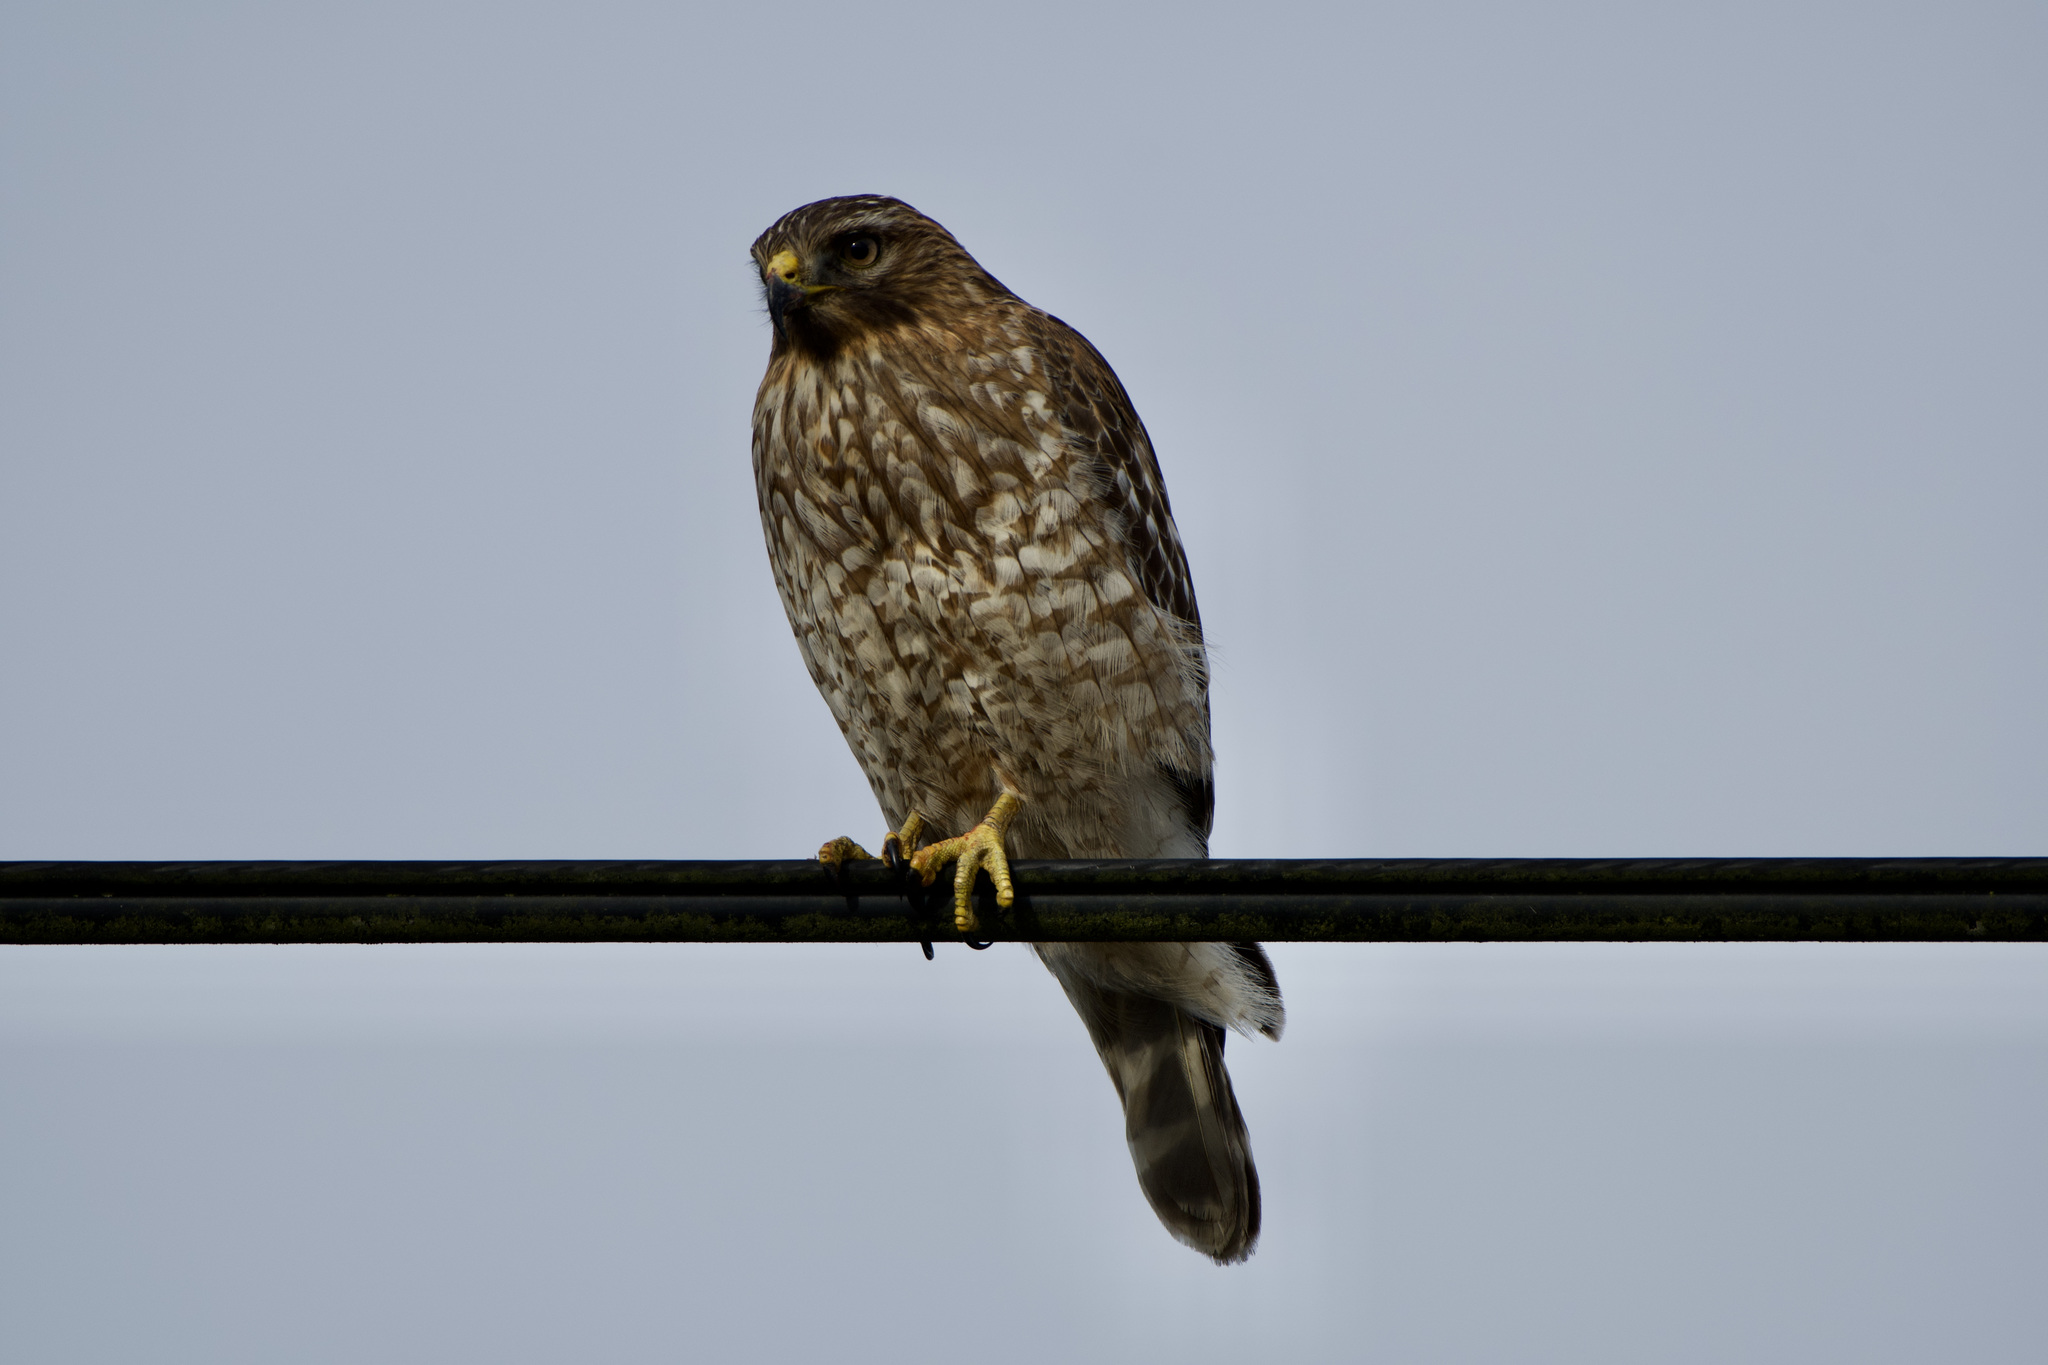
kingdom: Animalia
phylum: Chordata
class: Aves
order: Accipitriformes
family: Accipitridae
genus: Buteo
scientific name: Buteo lineatus
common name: Red-shouldered hawk
